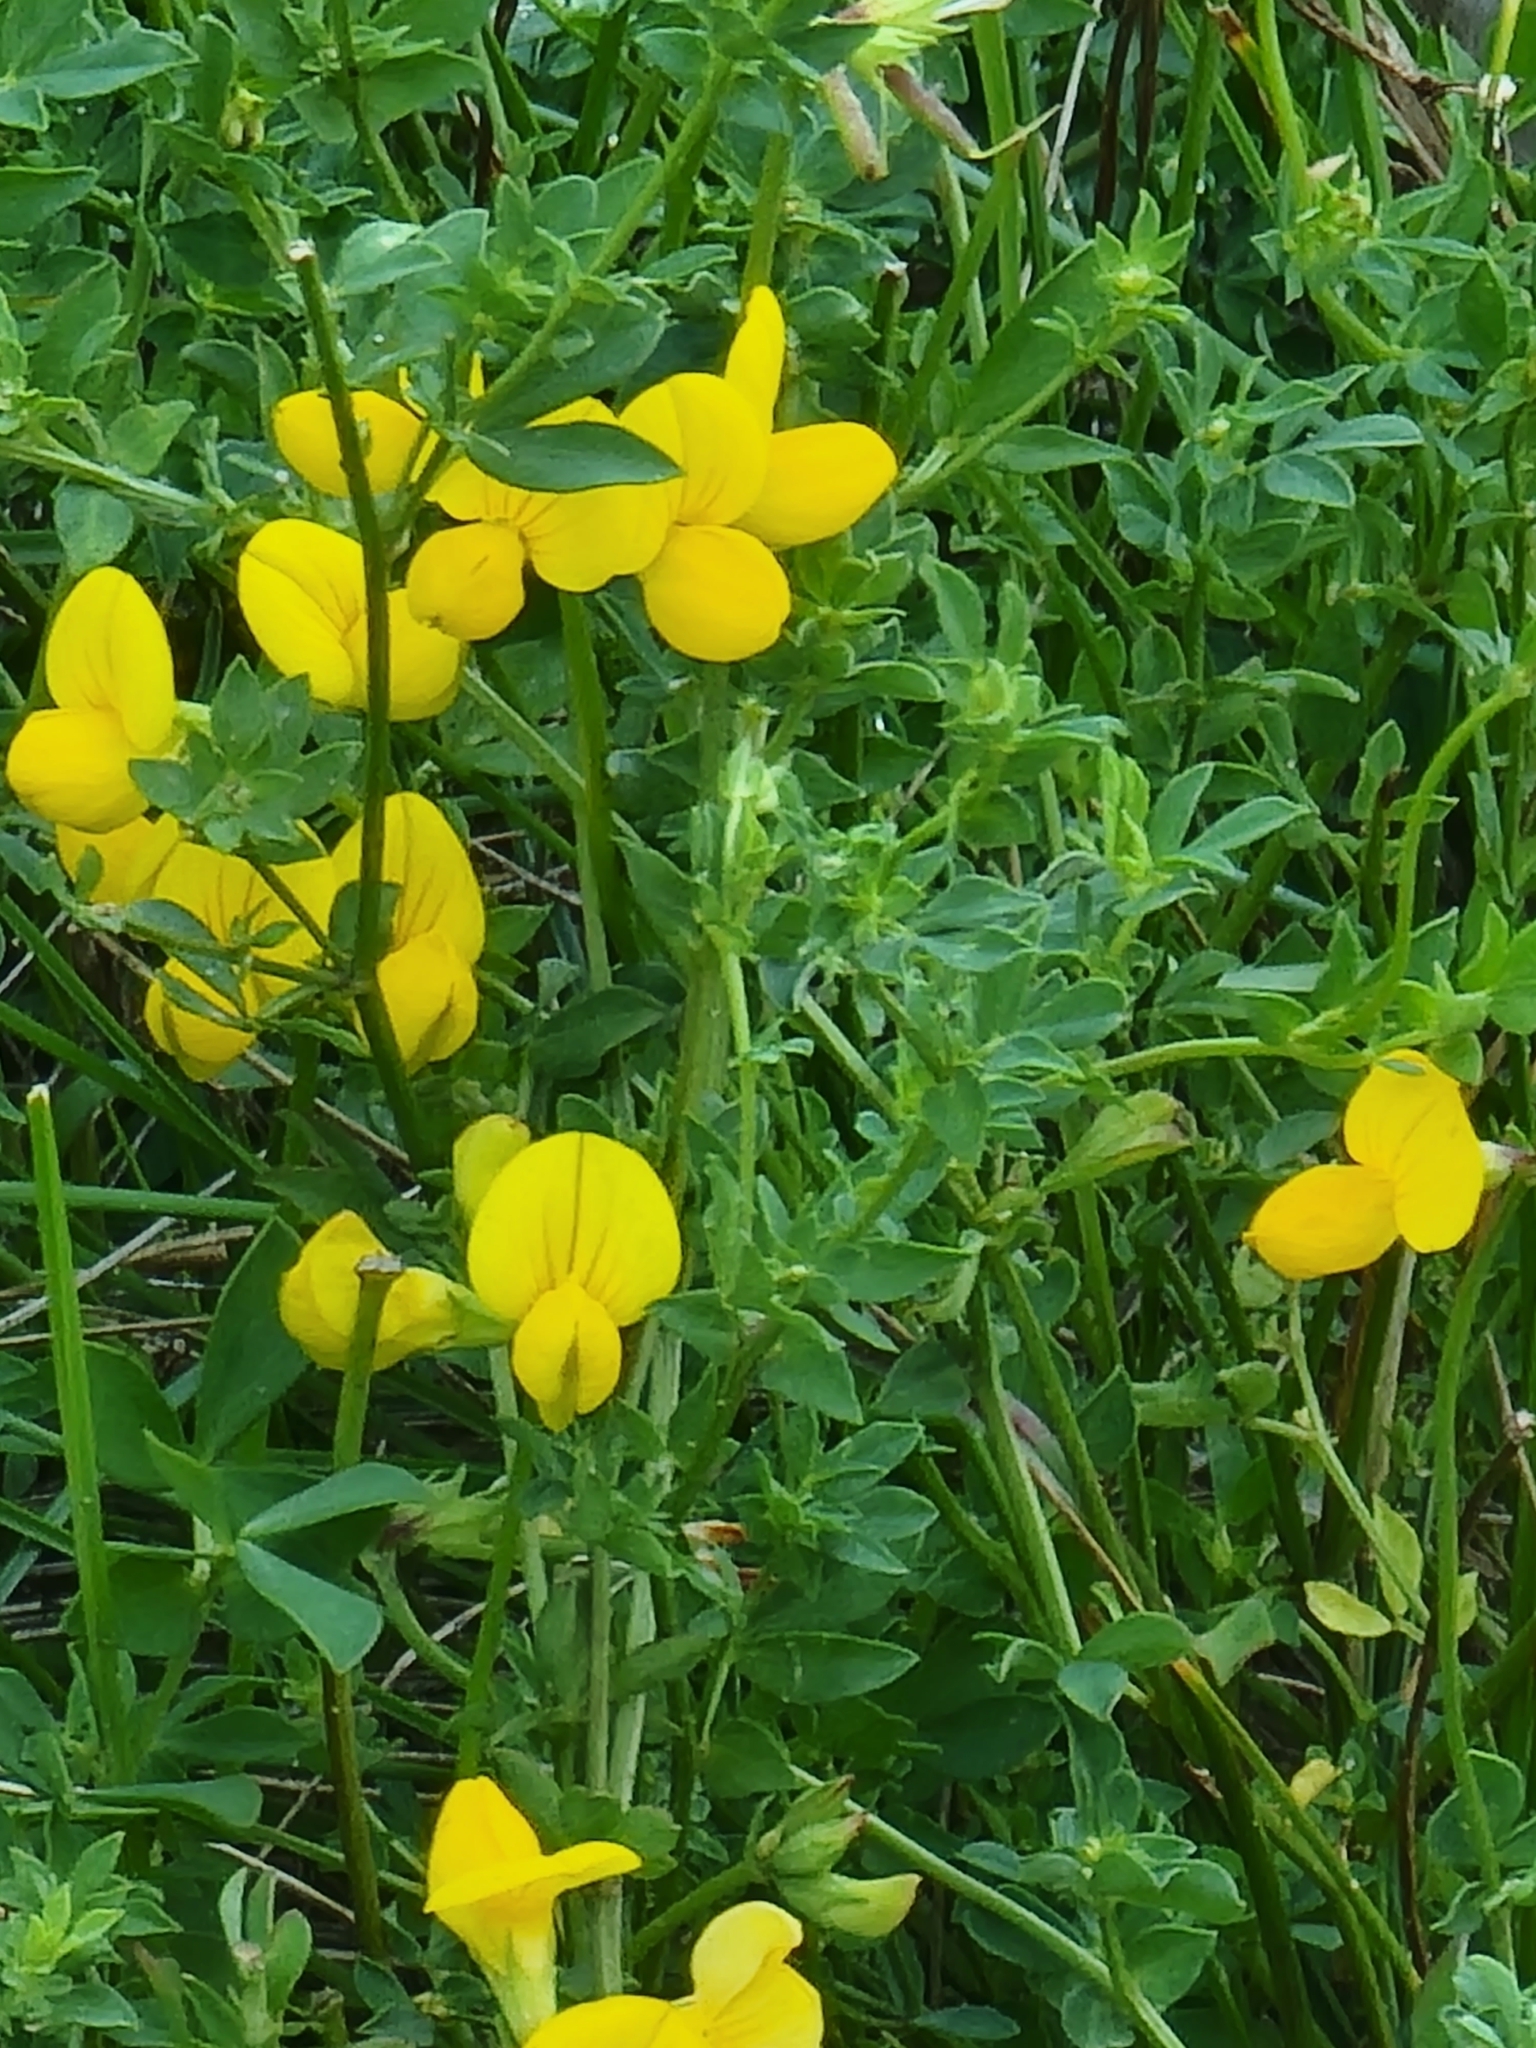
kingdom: Plantae
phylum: Tracheophyta
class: Magnoliopsida
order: Fabales
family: Fabaceae
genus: Lotus
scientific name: Lotus corniculatus
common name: Common bird's-foot-trefoil
